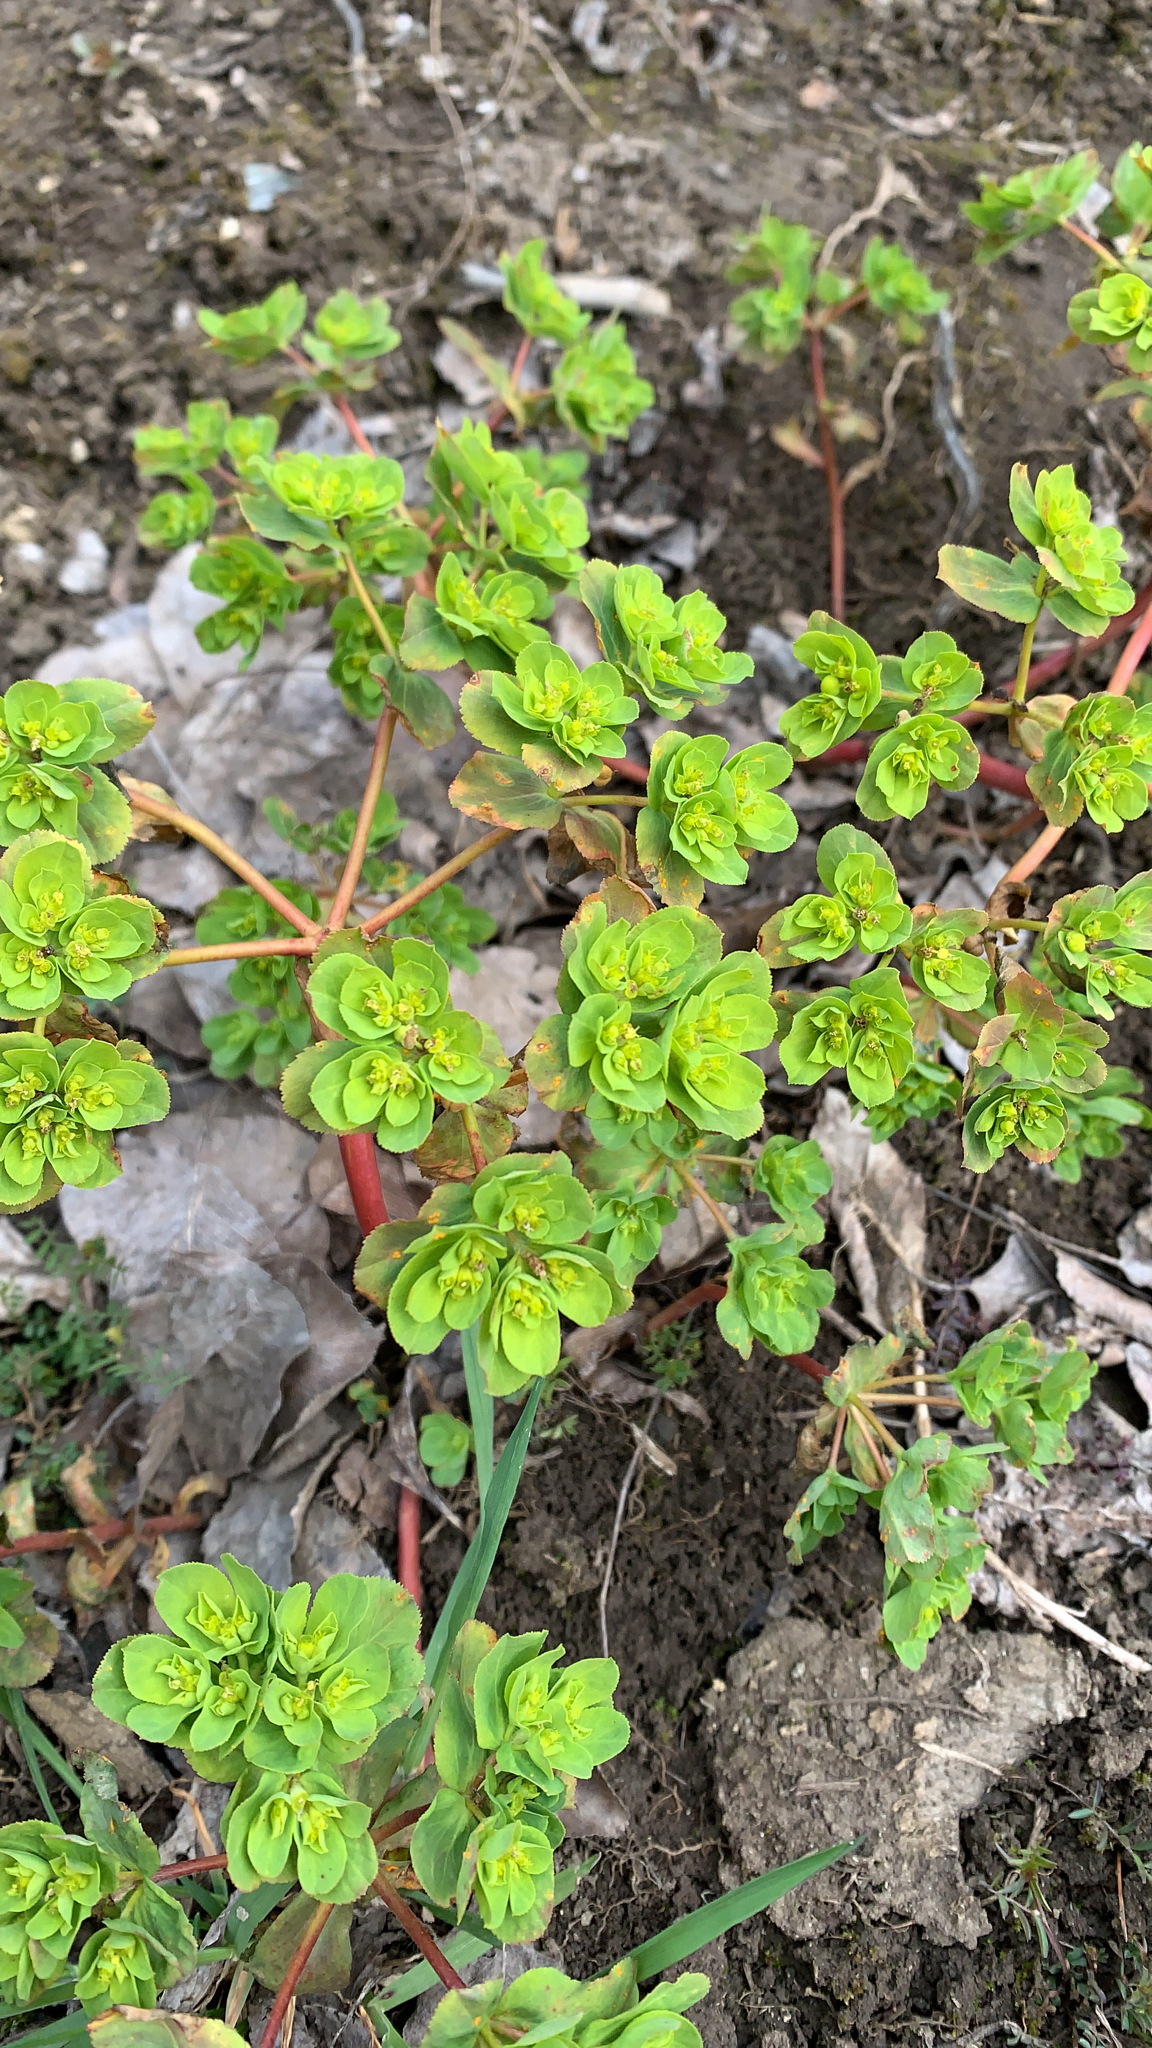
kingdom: Plantae
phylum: Tracheophyta
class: Magnoliopsida
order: Malpighiales
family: Euphorbiaceae
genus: Euphorbia
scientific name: Euphorbia helioscopia
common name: Sun spurge
